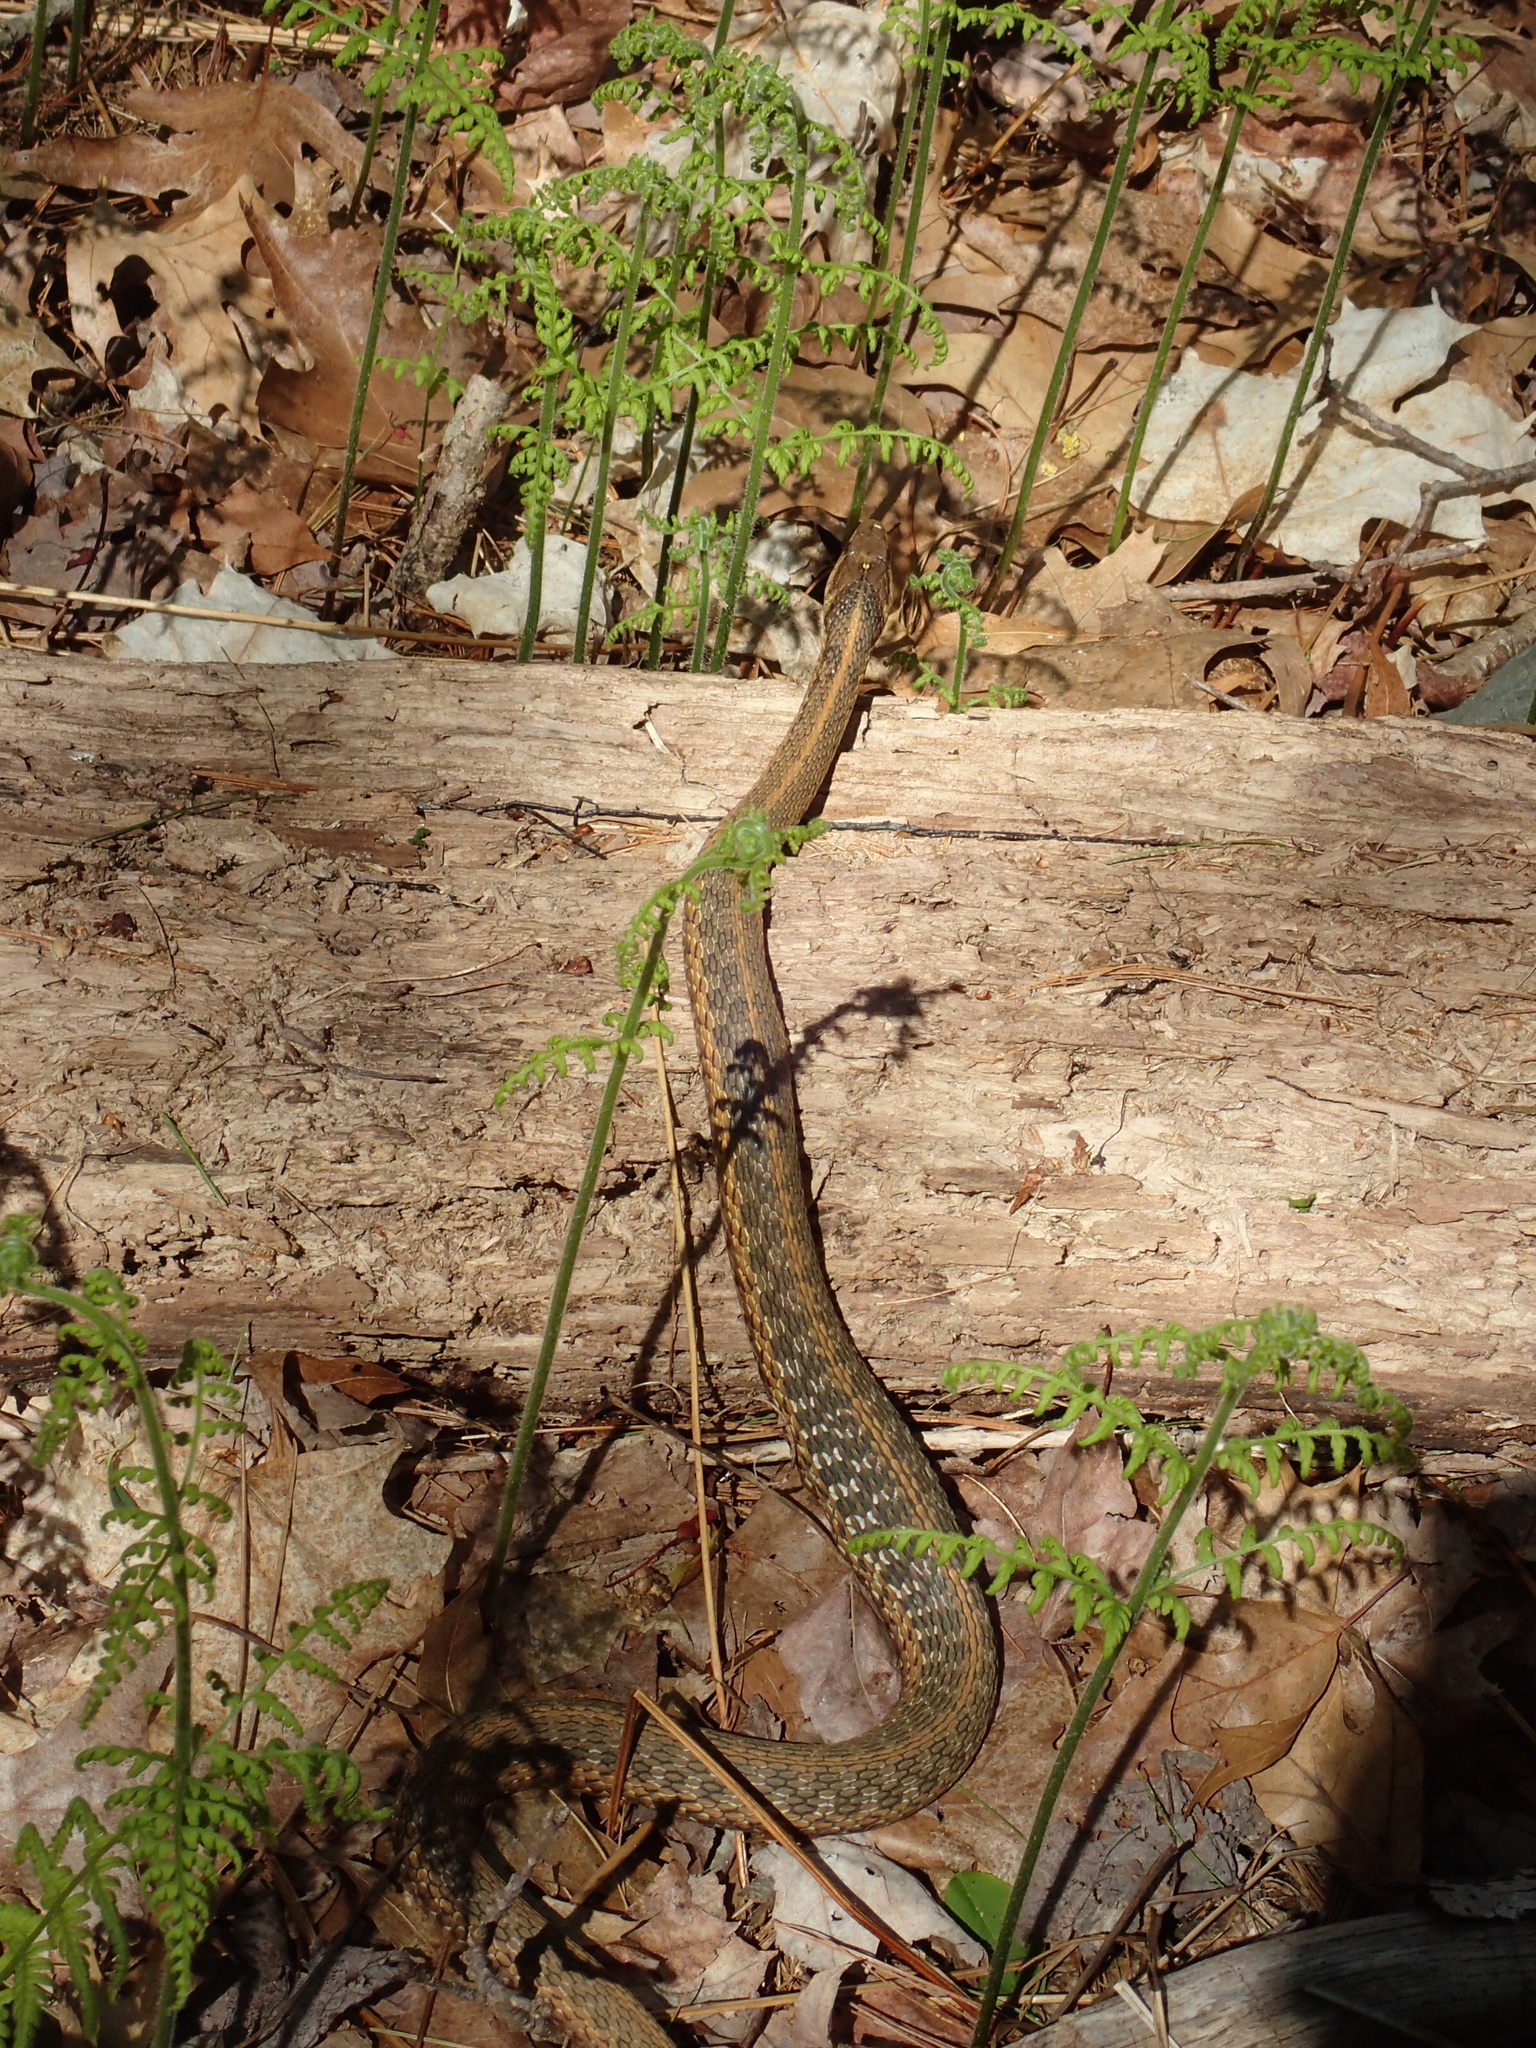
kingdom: Animalia
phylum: Chordata
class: Squamata
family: Colubridae
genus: Thamnophis
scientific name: Thamnophis sirtalis
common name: Common garter snake
